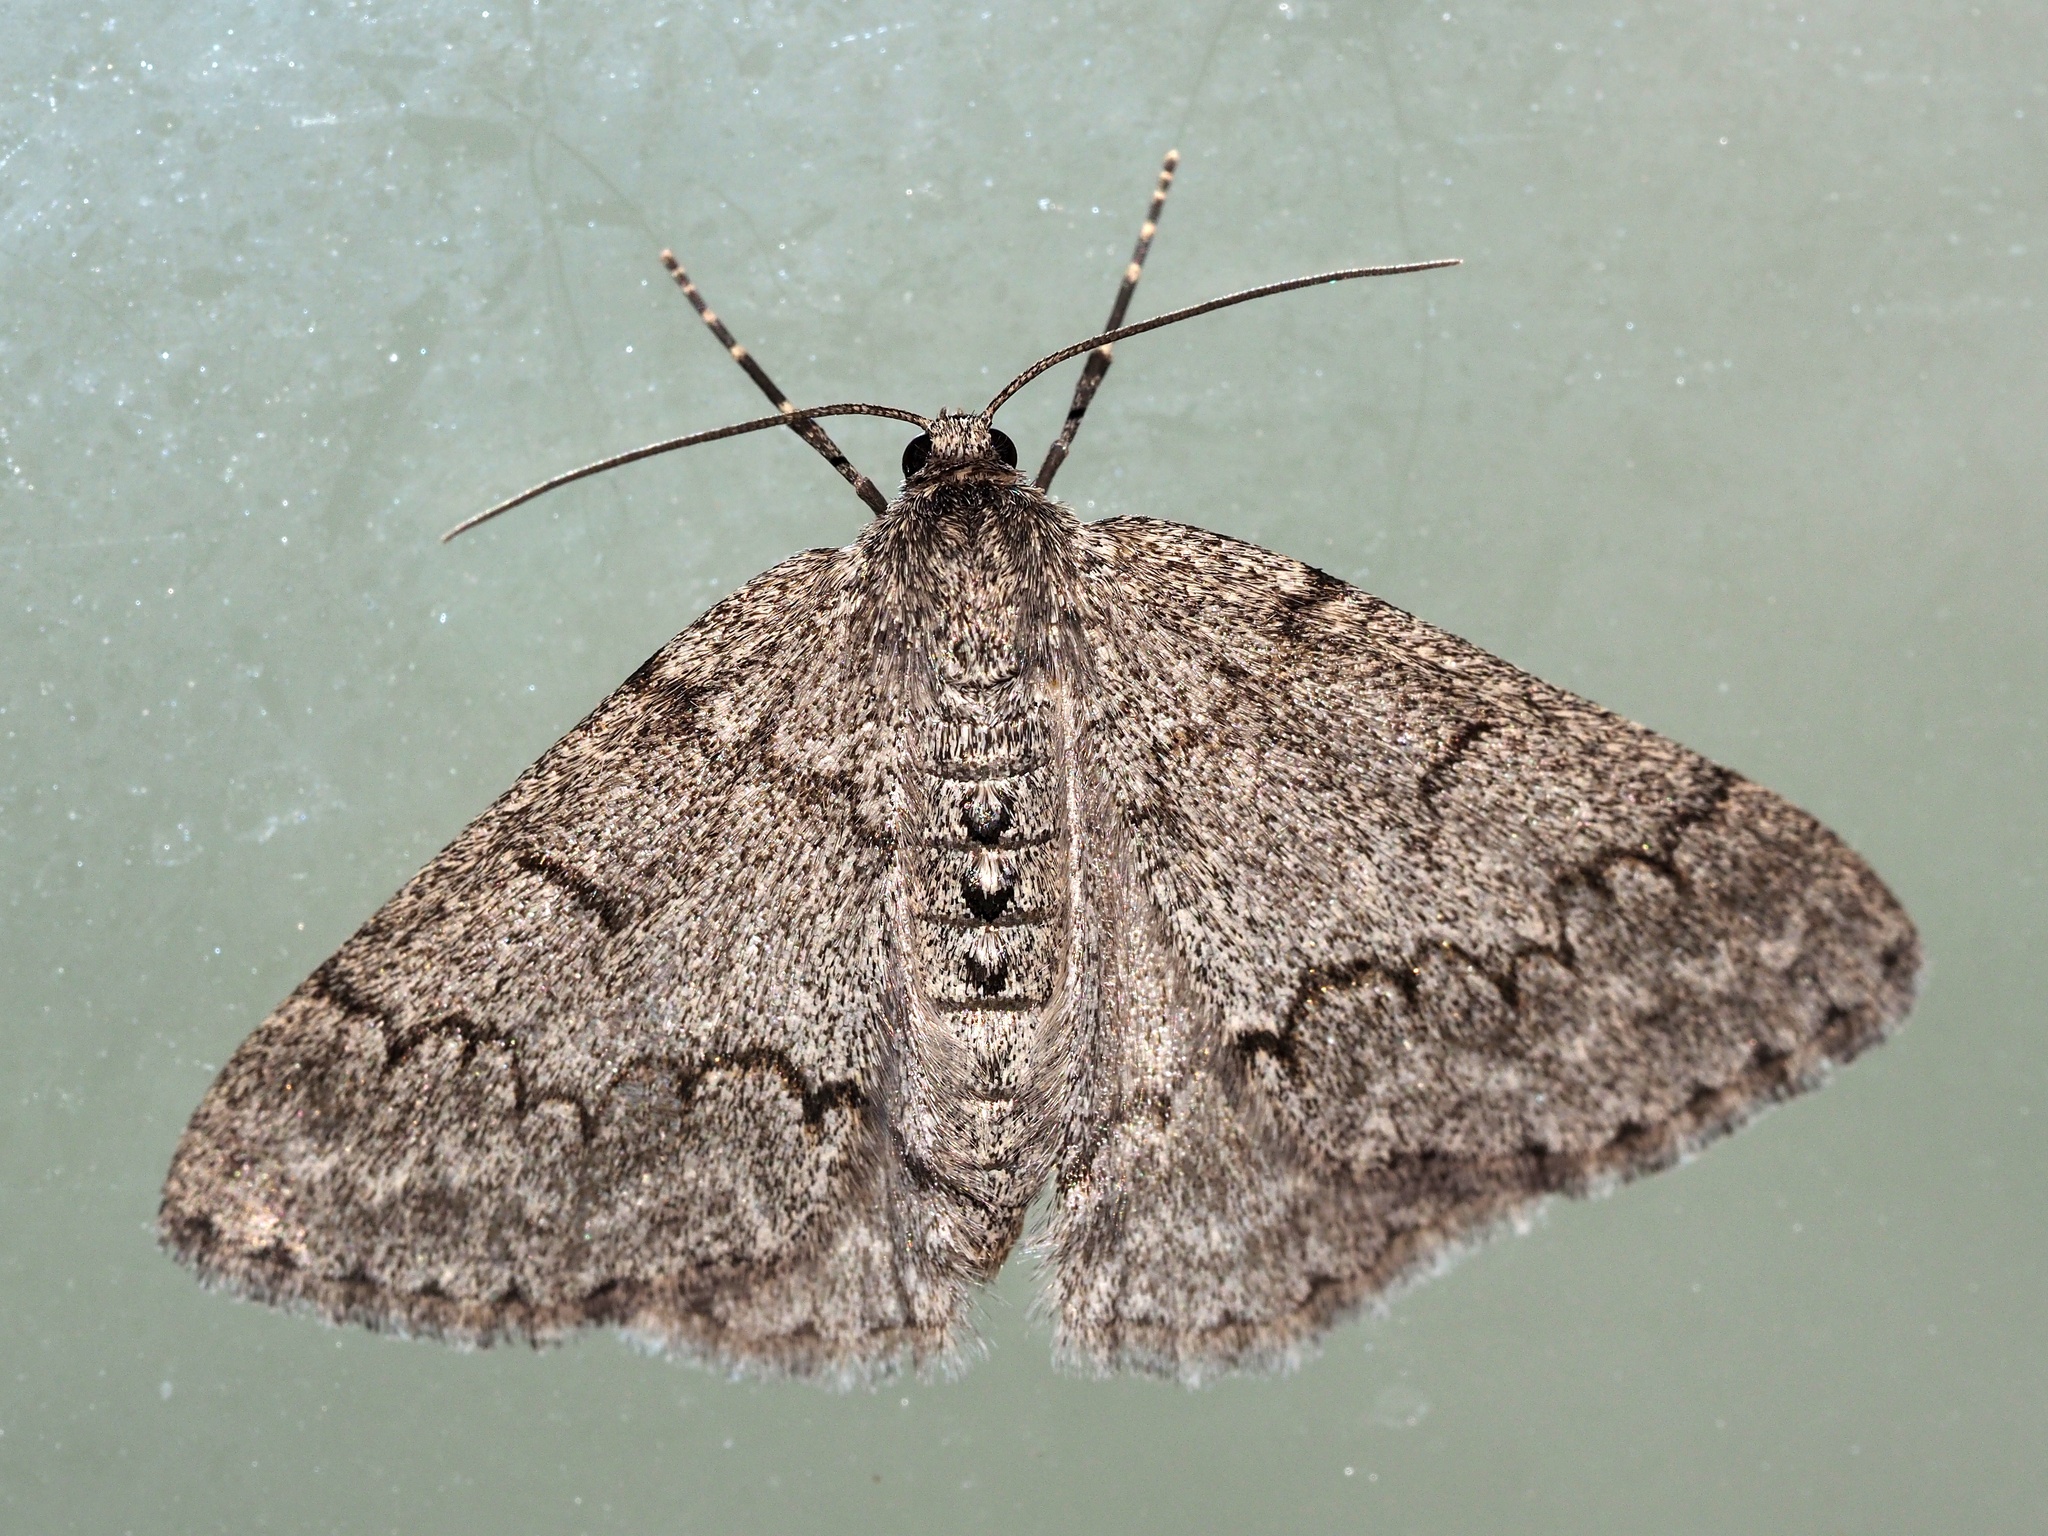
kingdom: Animalia
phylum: Arthropoda
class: Insecta
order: Lepidoptera
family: Geometridae
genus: Pseudoterpna
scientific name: Pseudoterpna coronillaria
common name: Jersey emerald
